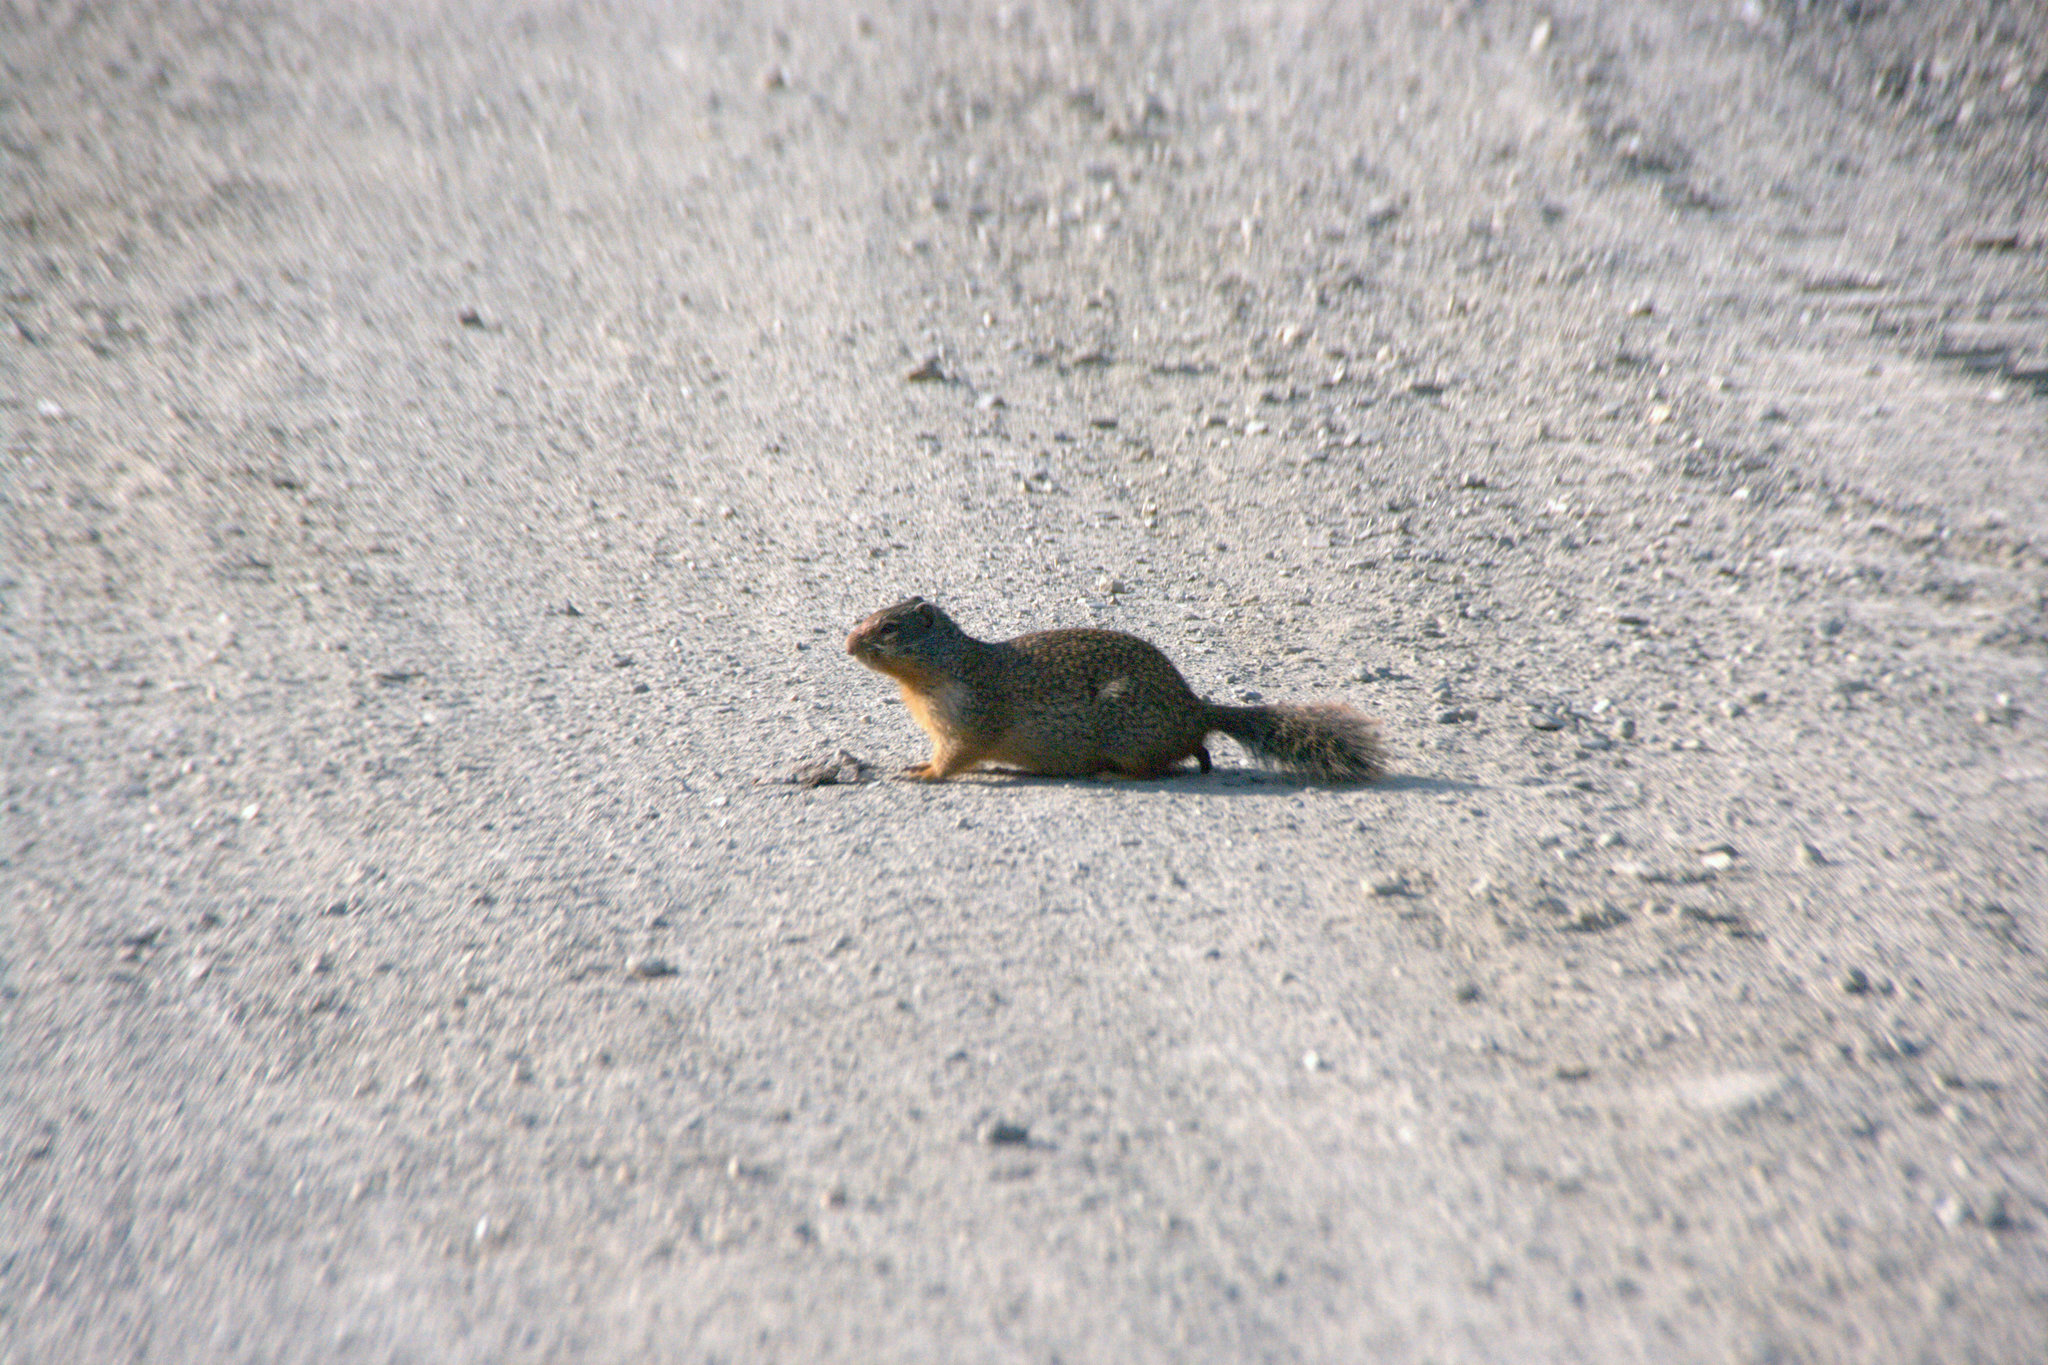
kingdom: Animalia
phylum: Chordata
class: Mammalia
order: Rodentia
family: Sciuridae
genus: Urocitellus
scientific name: Urocitellus columbianus
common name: Columbian ground squirrel
